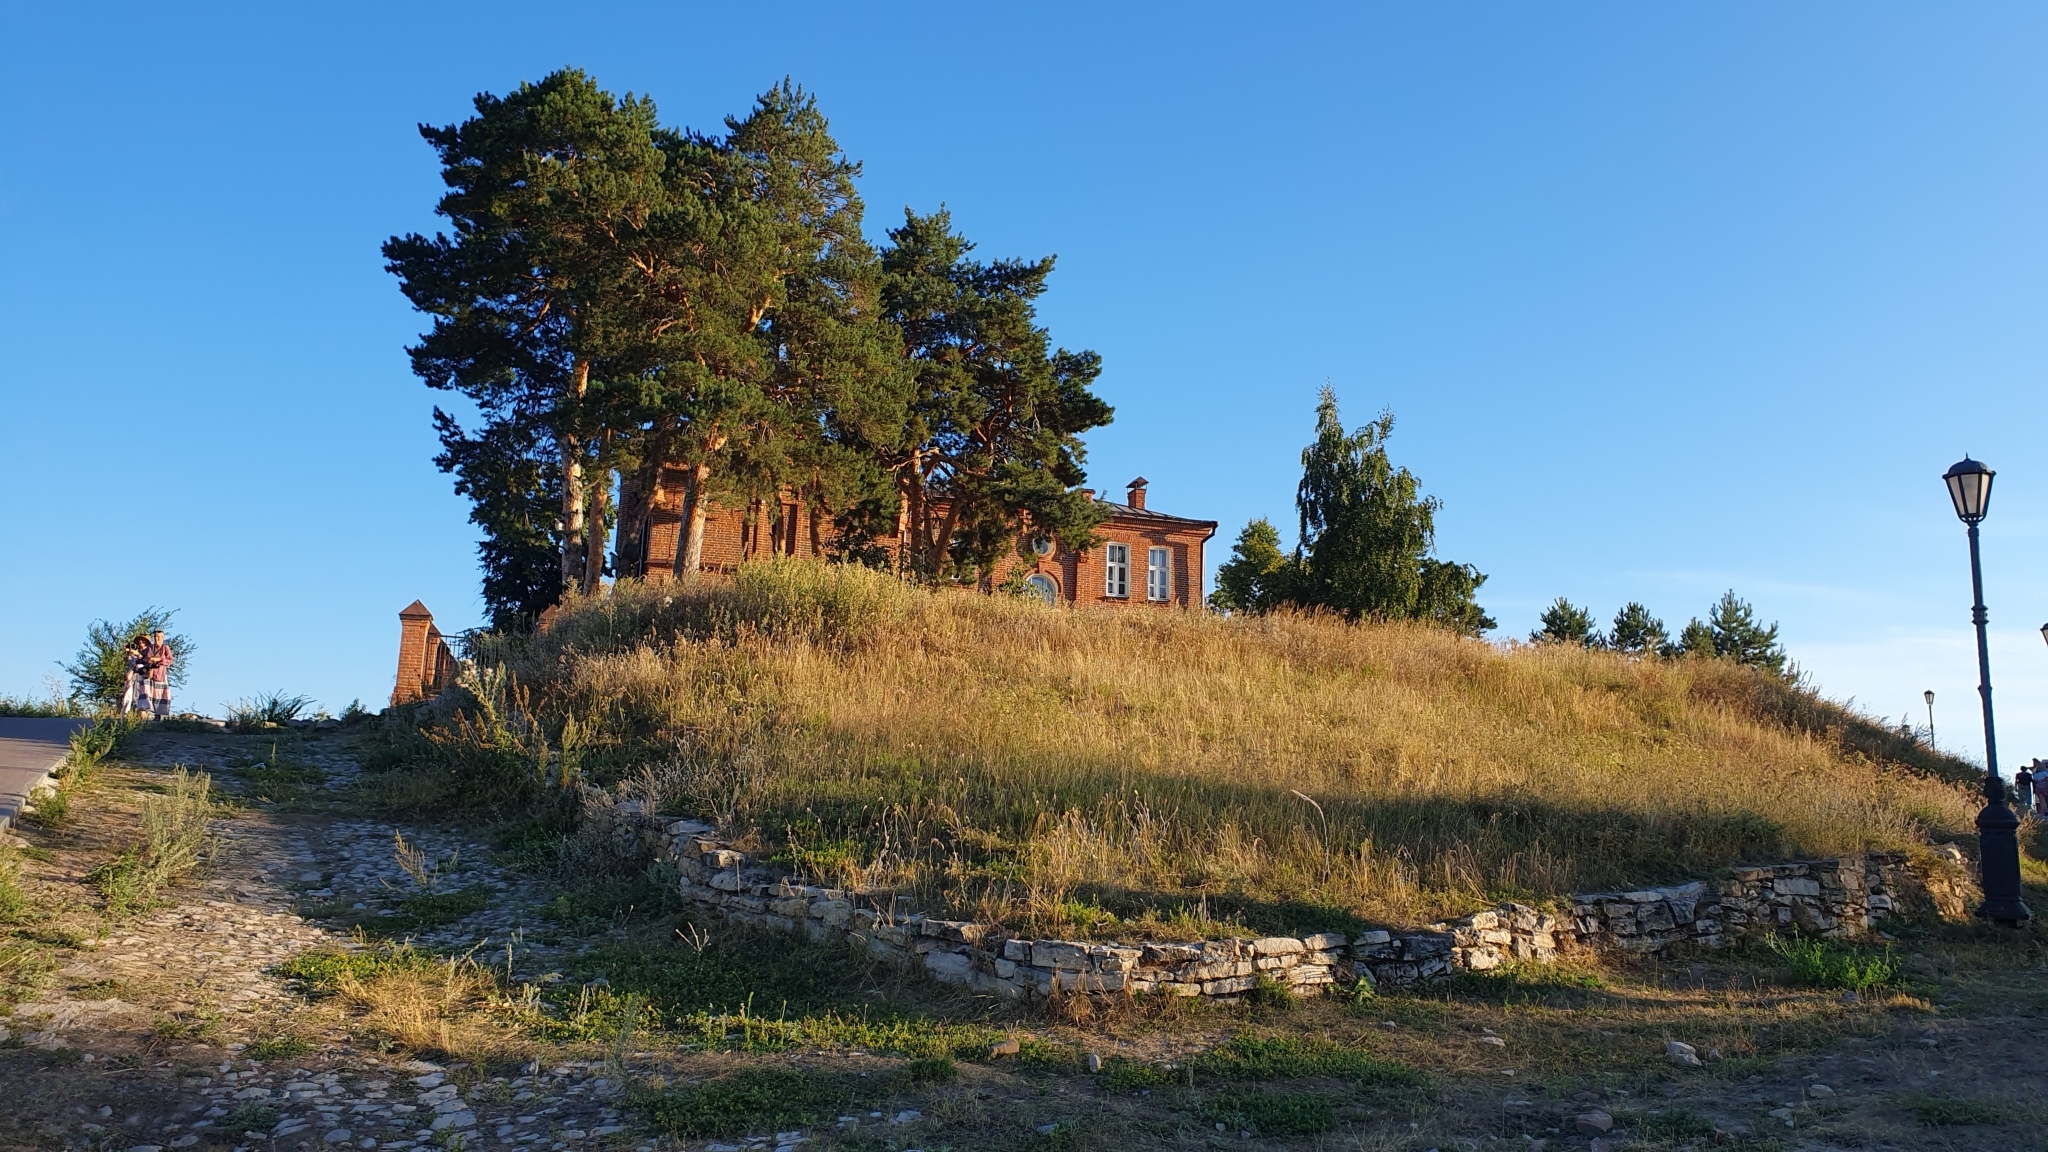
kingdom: Plantae
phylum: Tracheophyta
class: Pinopsida
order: Pinales
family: Pinaceae
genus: Pinus
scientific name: Pinus sylvestris
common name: Scots pine
